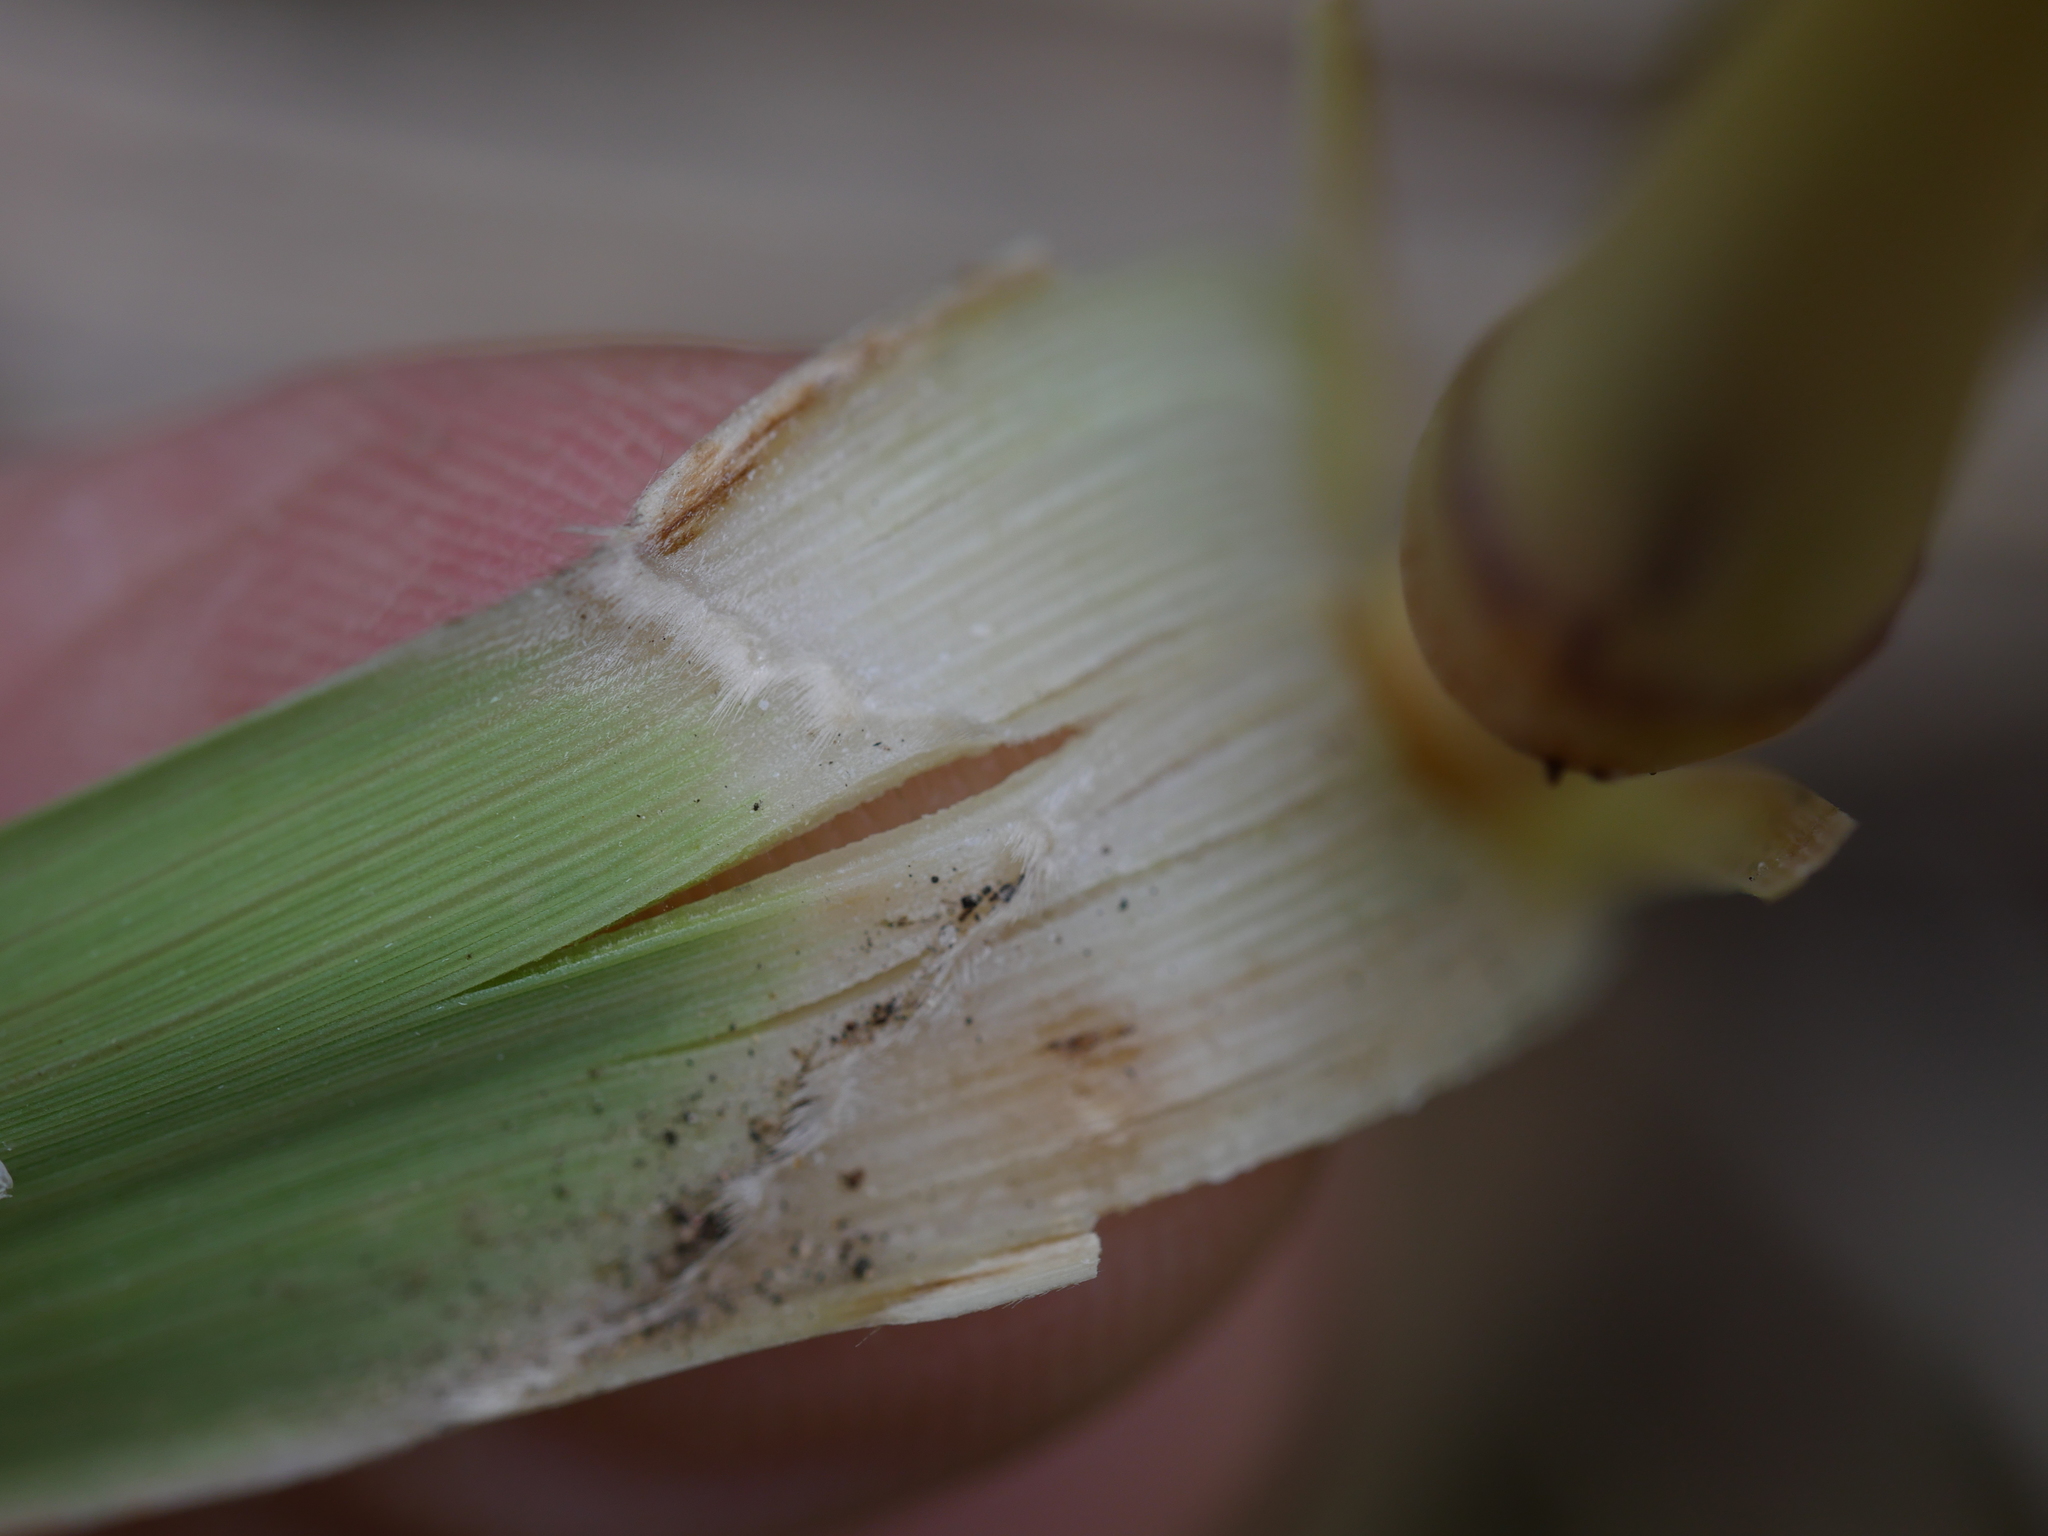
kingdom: Plantae
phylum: Tracheophyta
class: Liliopsida
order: Poales
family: Poaceae
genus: Chionochloa
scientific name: Chionochloa flavicans
